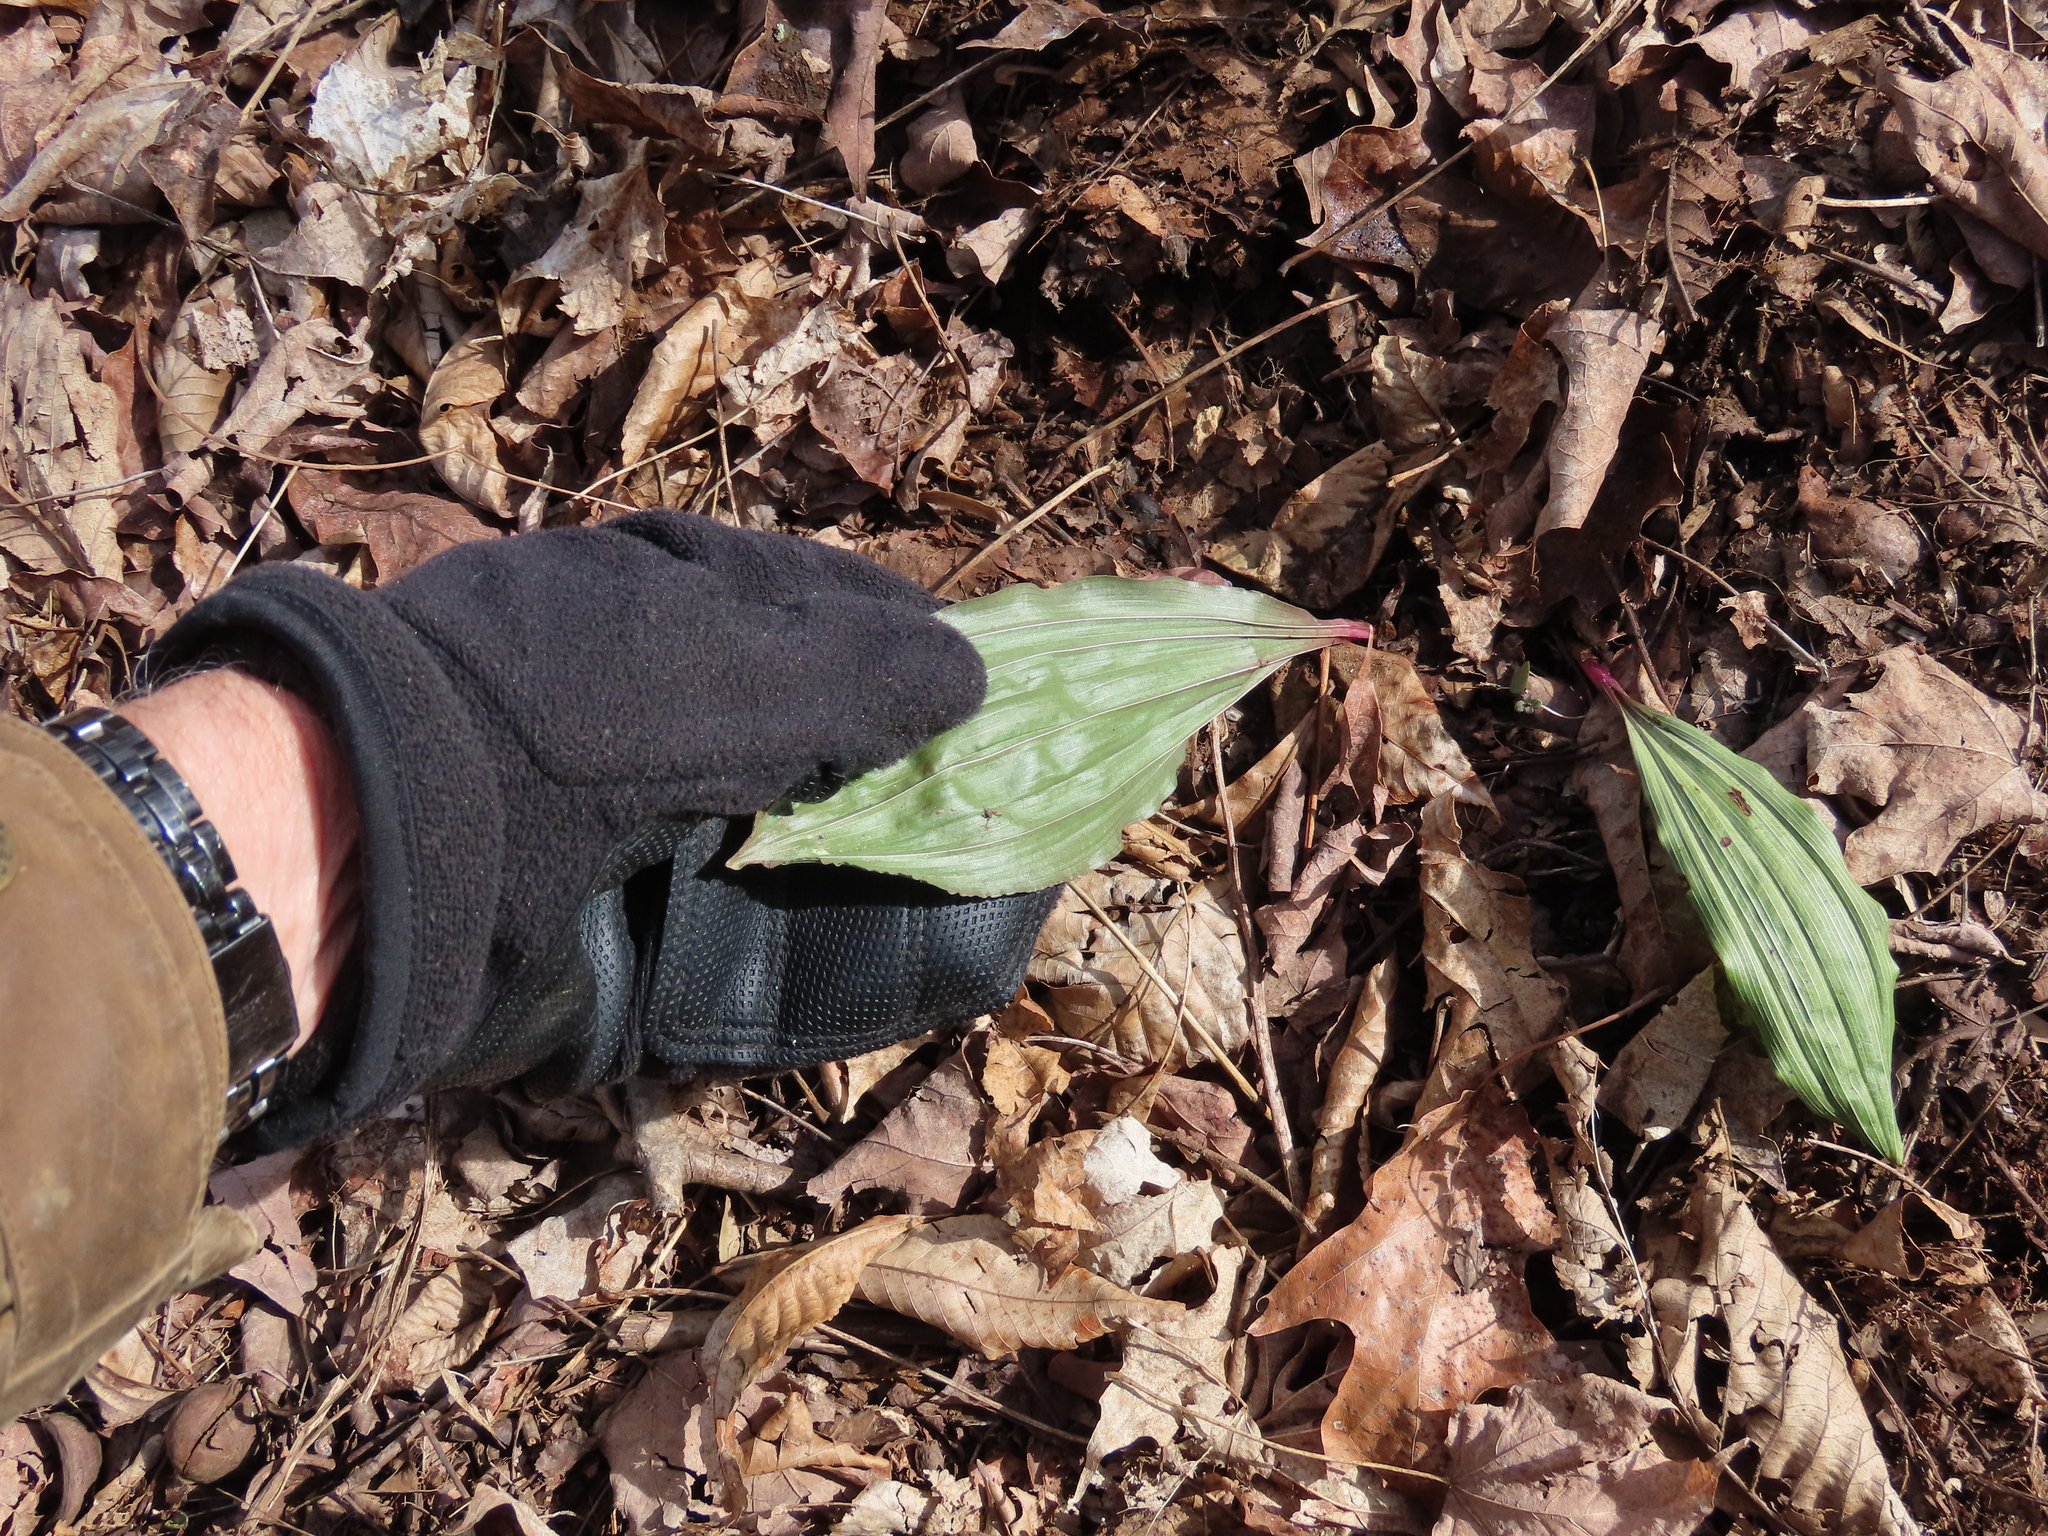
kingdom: Plantae
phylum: Tracheophyta
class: Liliopsida
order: Asparagales
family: Orchidaceae
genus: Aplectrum
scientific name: Aplectrum hyemale
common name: Adam-and-eve
